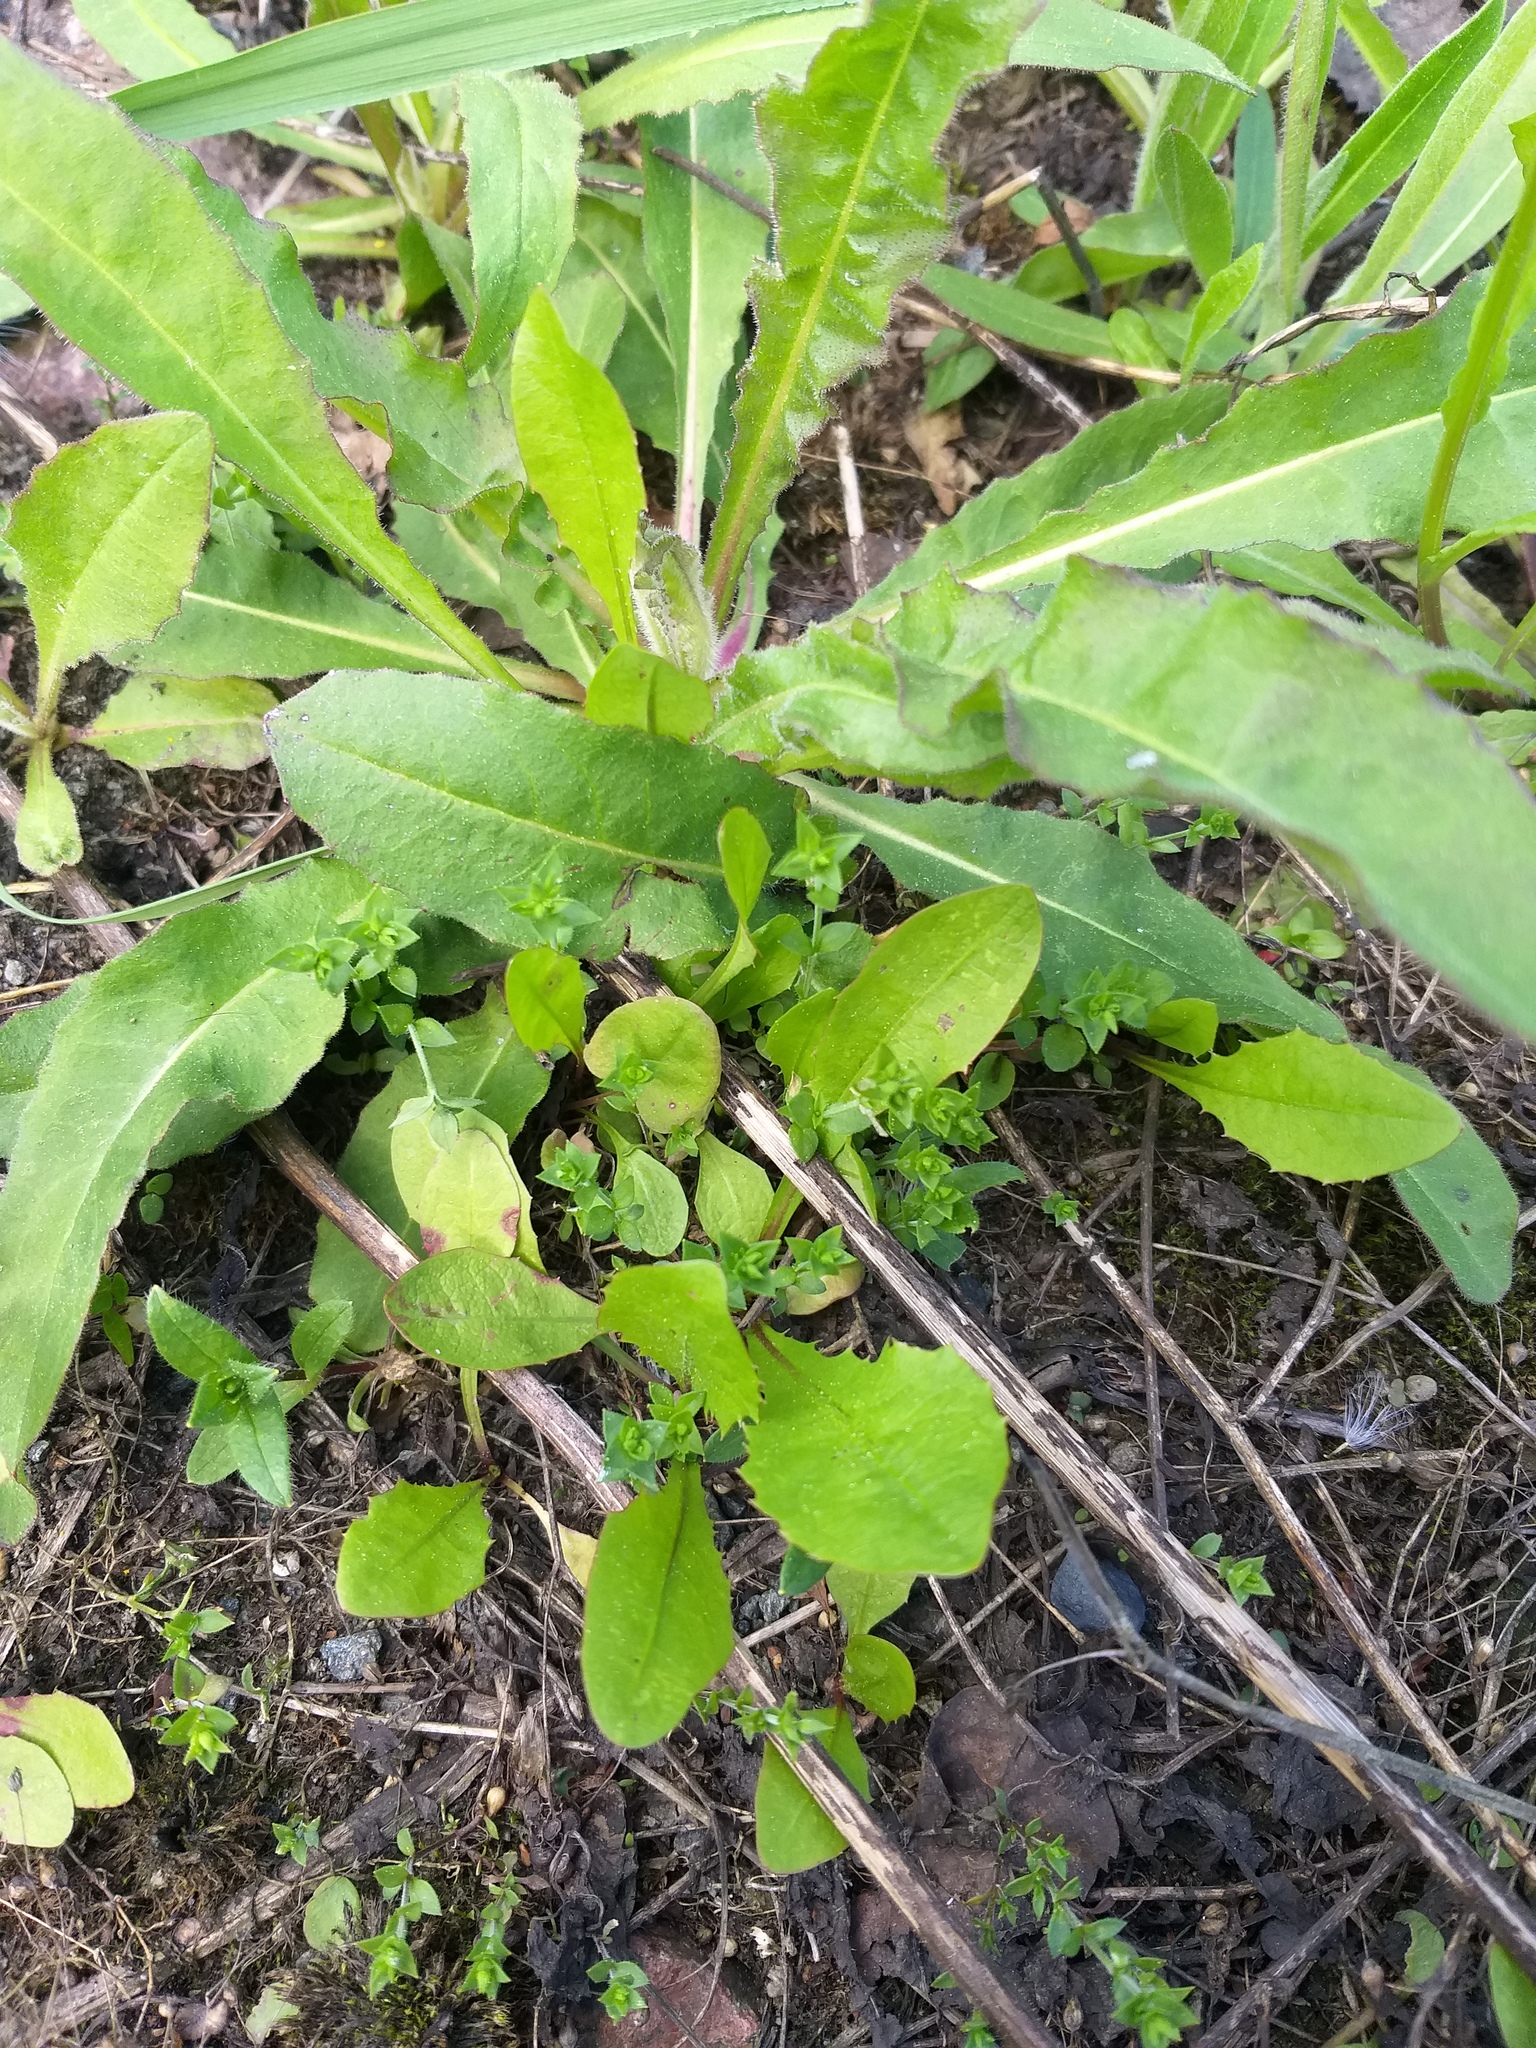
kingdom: Plantae
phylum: Tracheophyta
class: Magnoliopsida
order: Caryophyllales
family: Caryophyllaceae
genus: Arenaria
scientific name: Arenaria serpyllifolia
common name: Thyme-leaved sandwort
